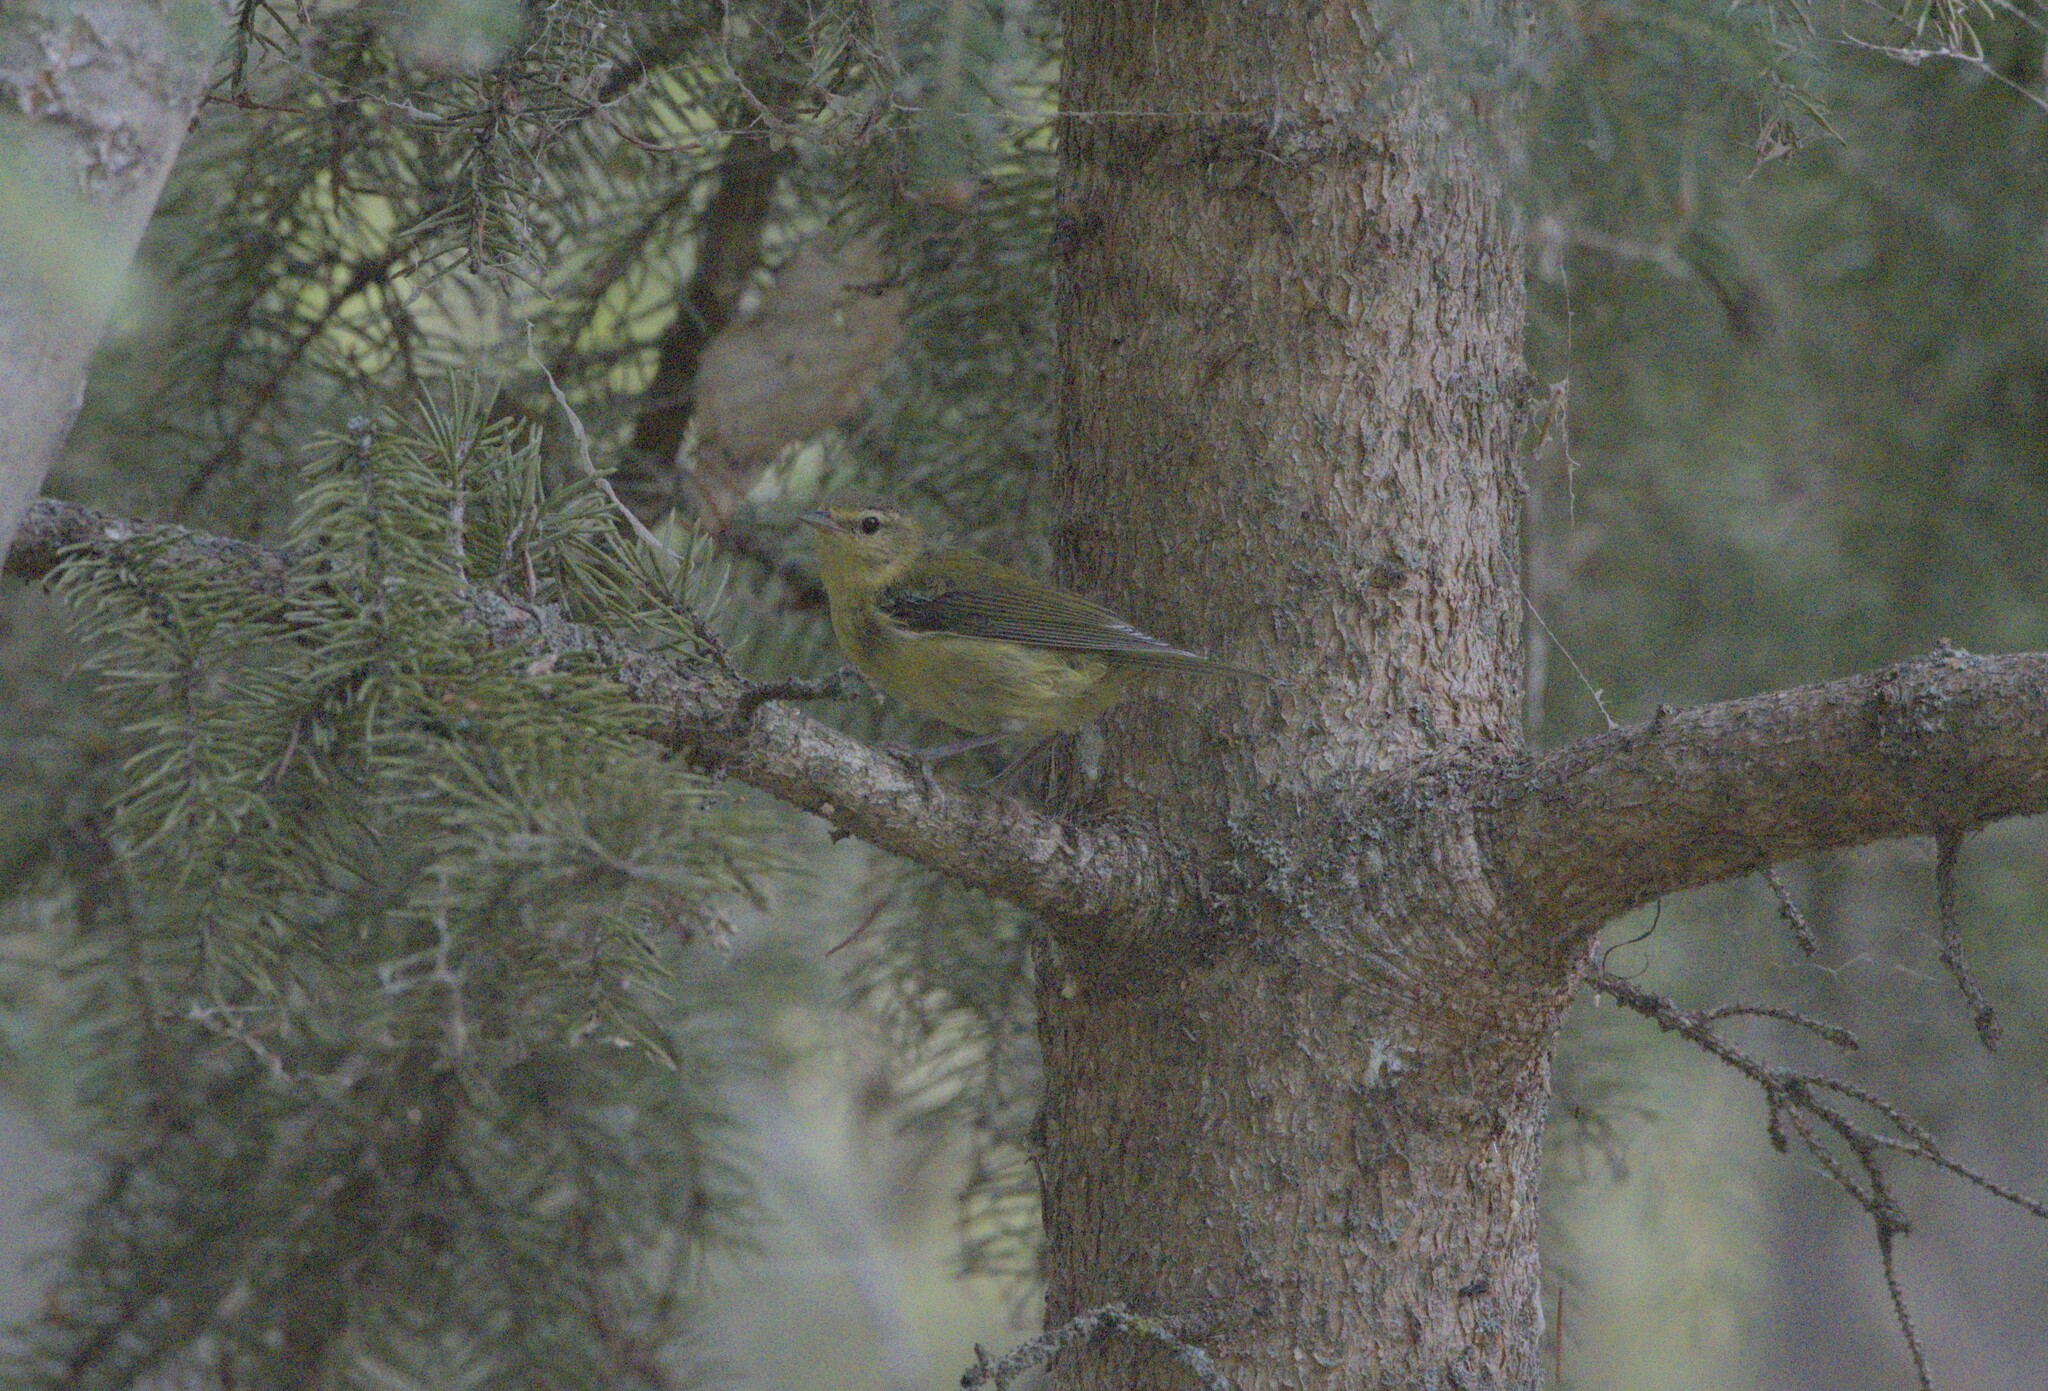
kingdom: Animalia
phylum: Chordata
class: Aves
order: Passeriformes
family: Parulidae
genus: Leiothlypis
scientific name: Leiothlypis peregrina
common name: Tennessee warbler
